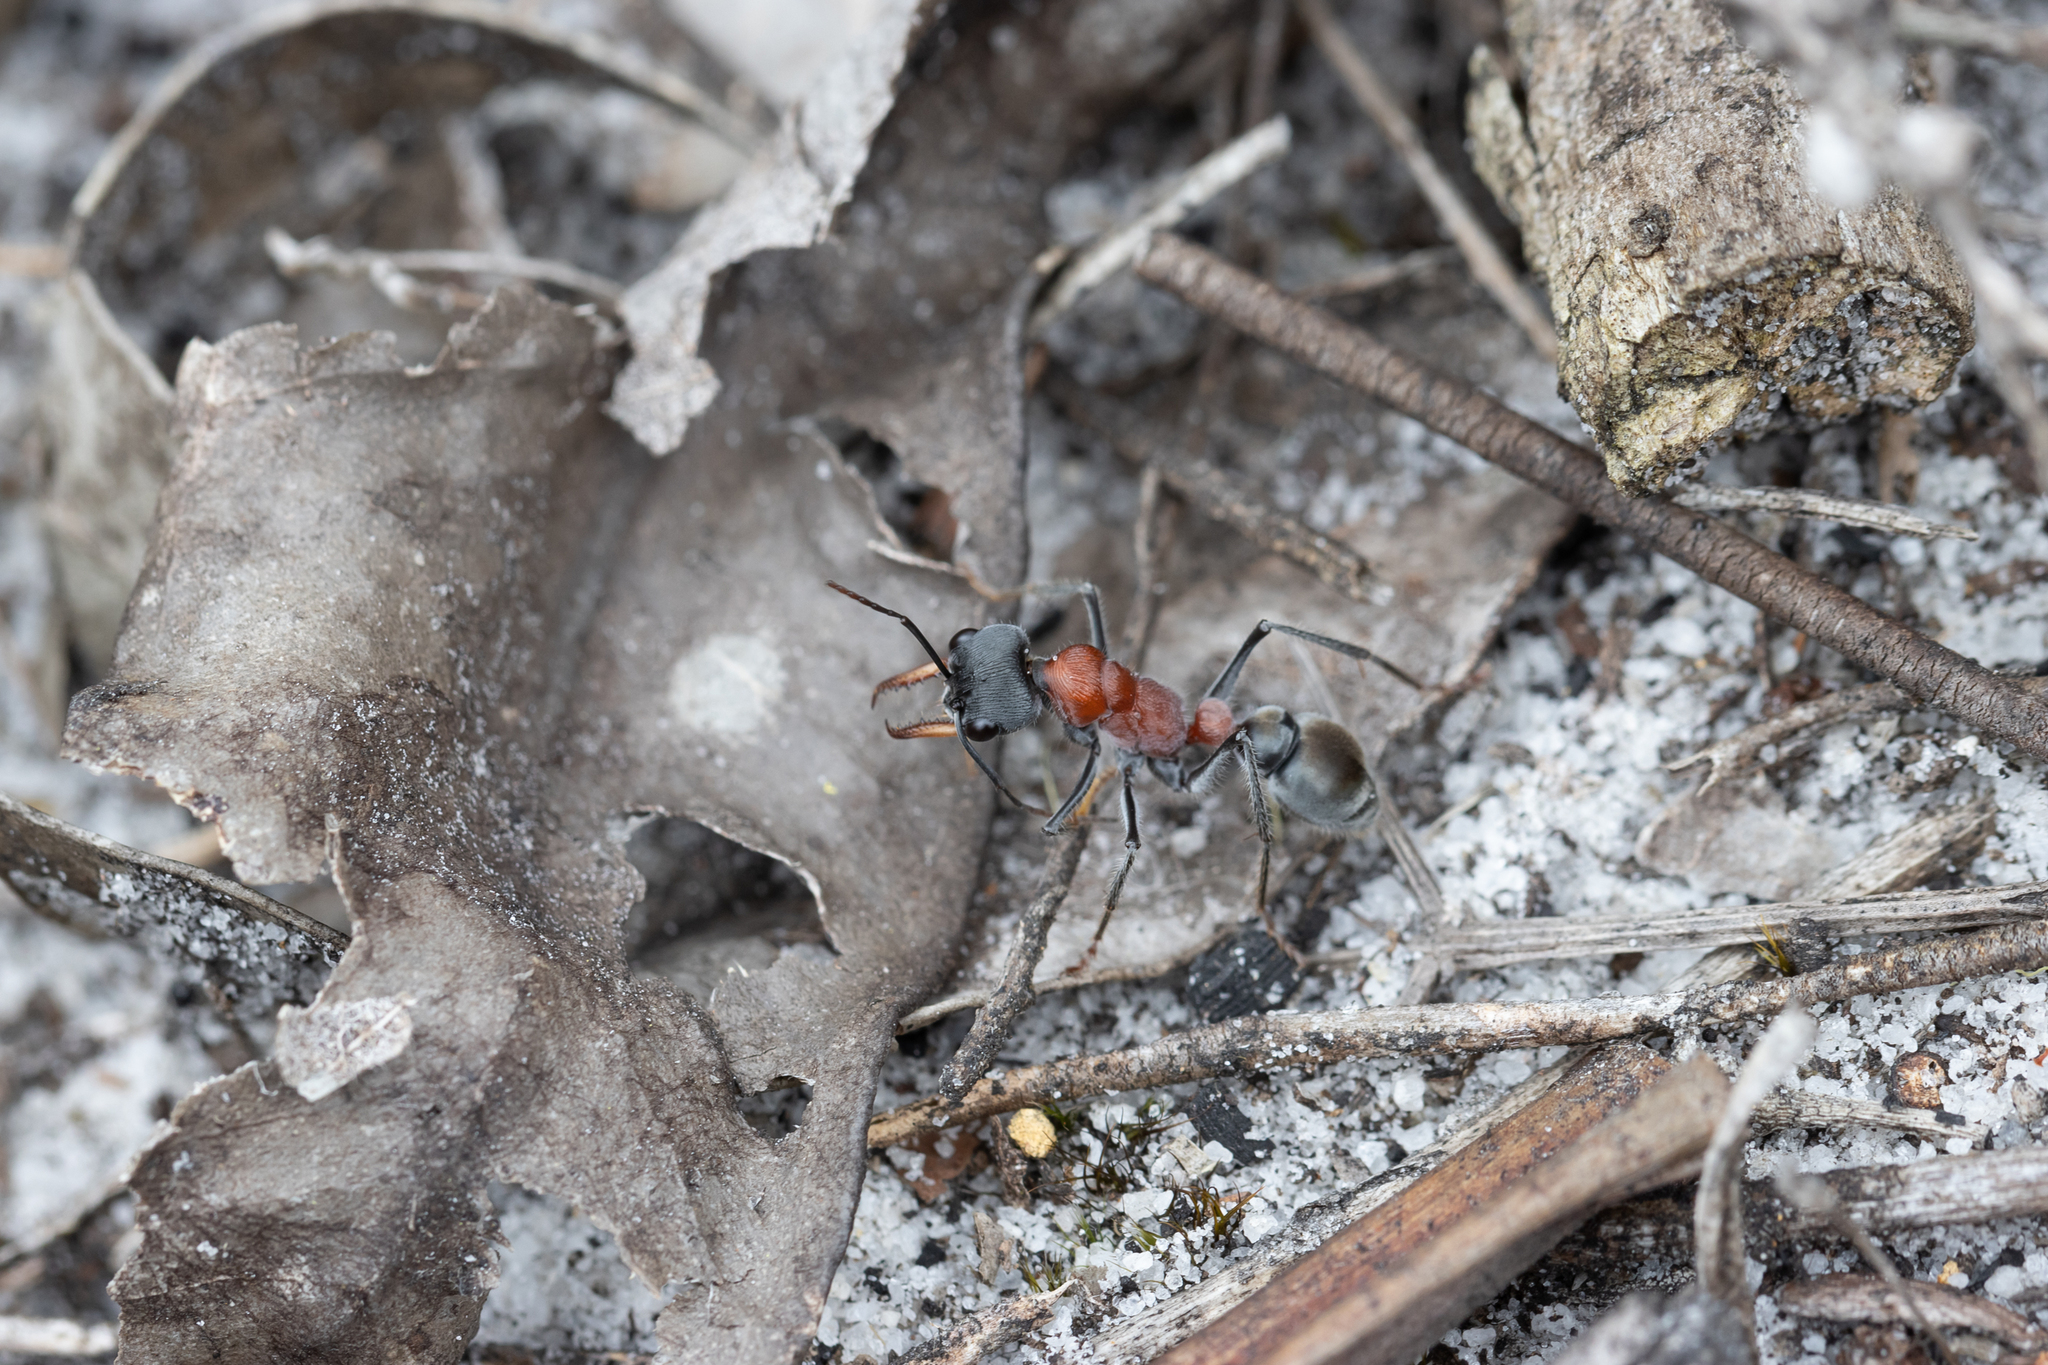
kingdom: Animalia
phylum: Arthropoda
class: Insecta
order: Hymenoptera
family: Formicidae
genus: Myrmecia
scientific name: Myrmecia chasei
